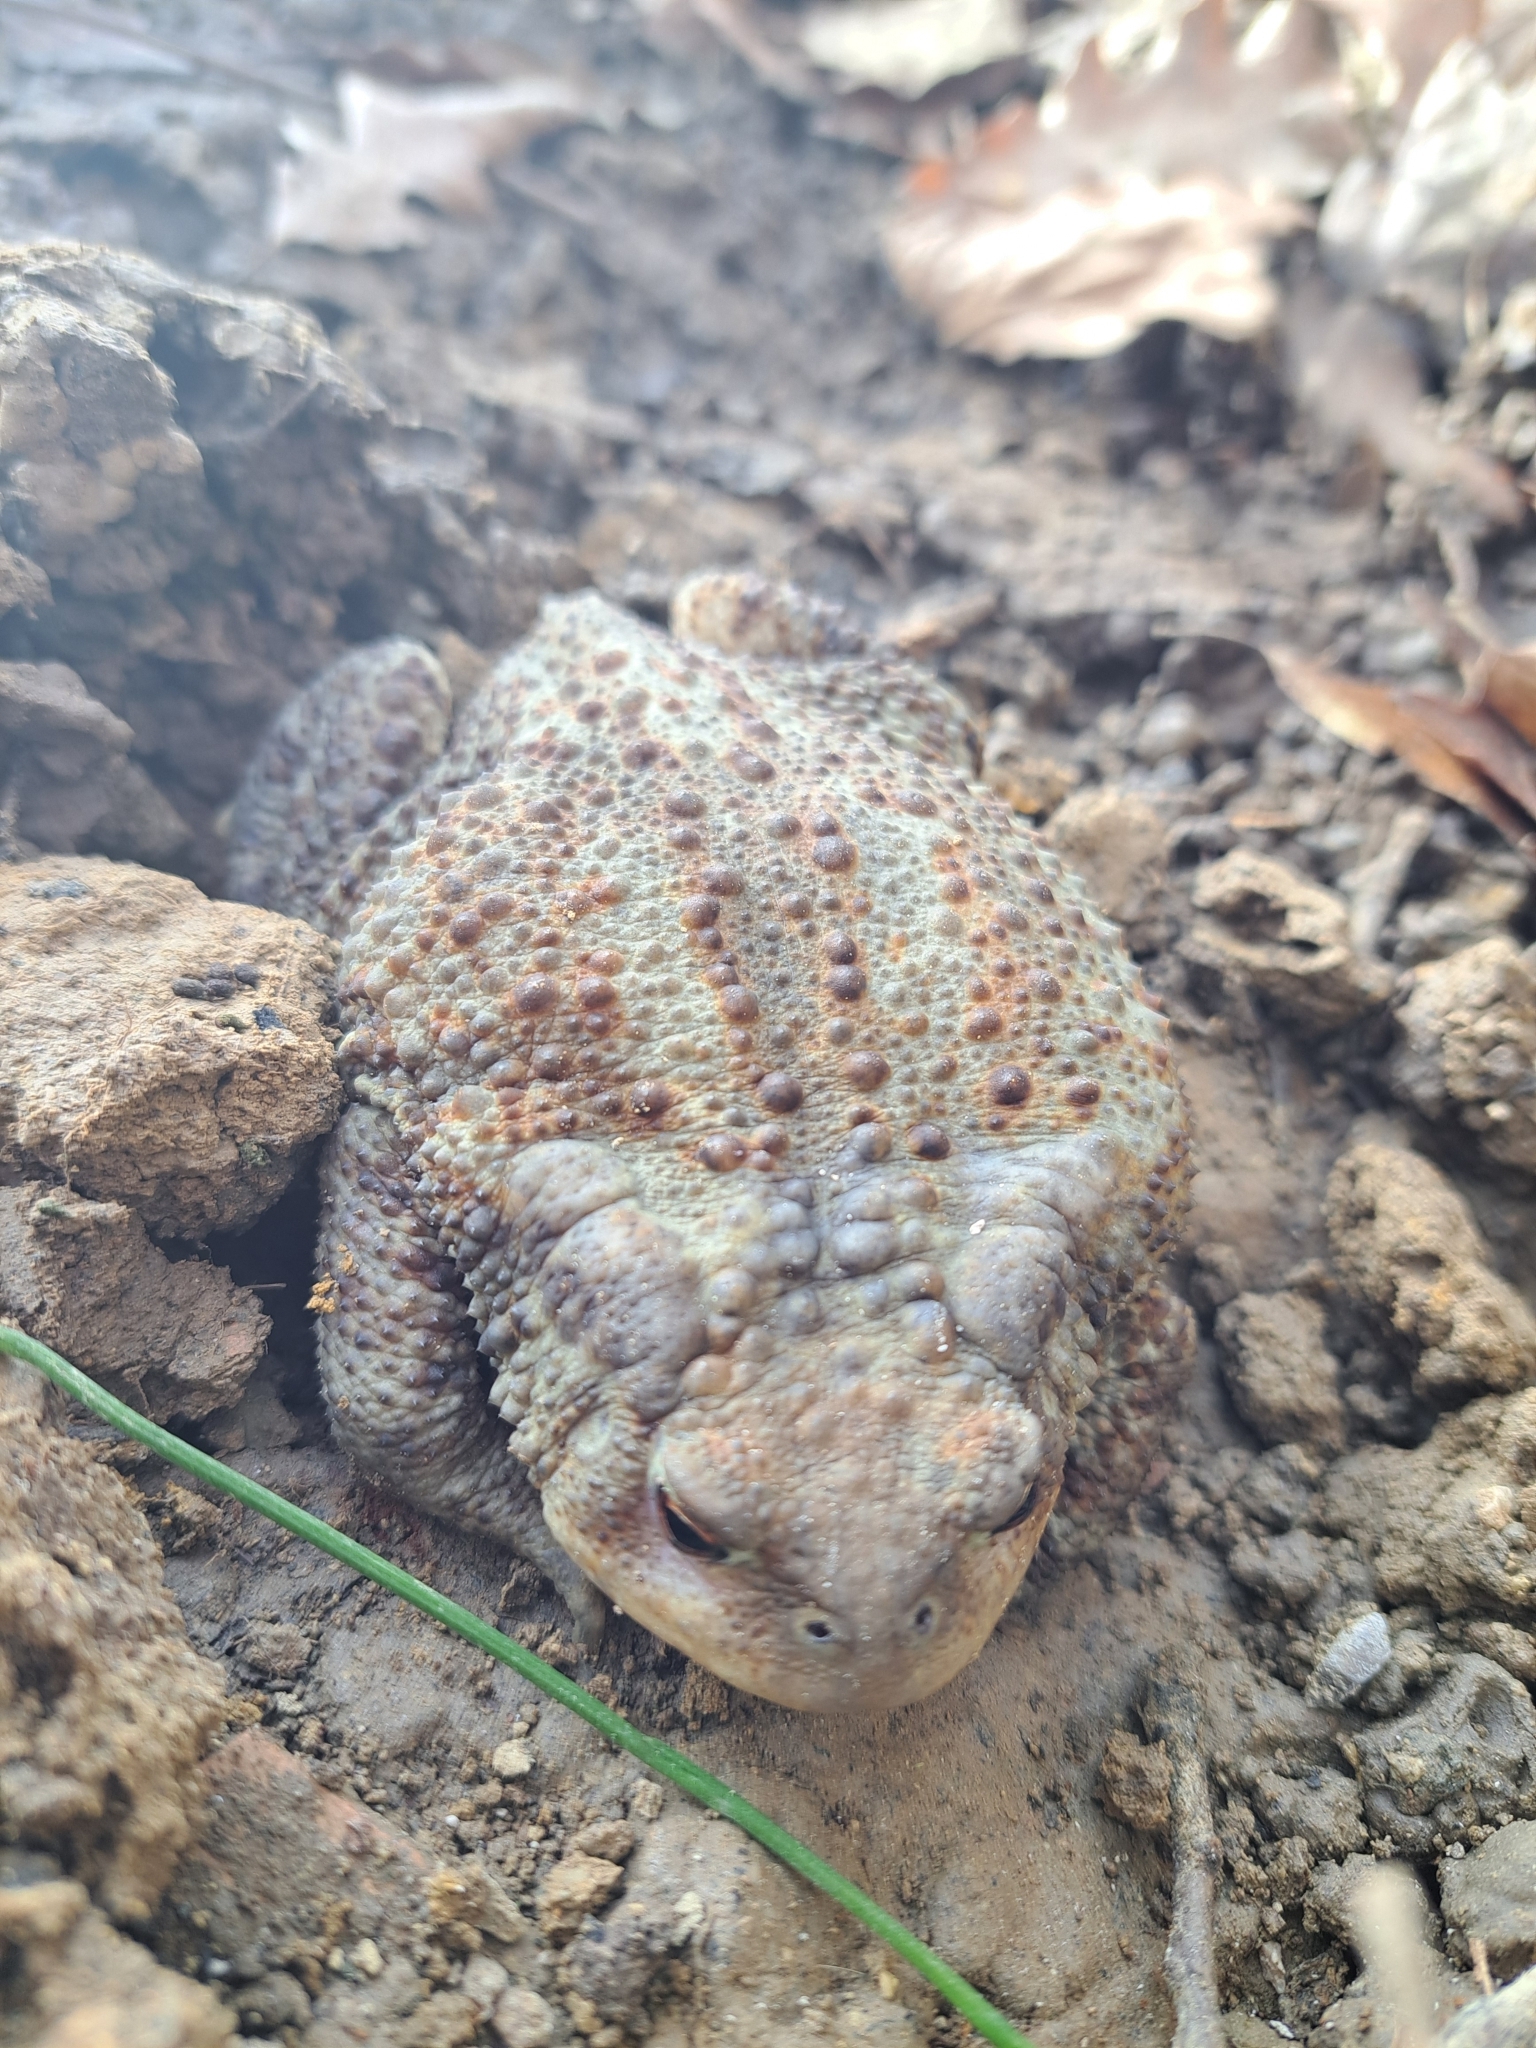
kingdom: Animalia
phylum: Chordata
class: Amphibia
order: Anura
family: Bufonidae
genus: Bufo
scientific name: Bufo bufo
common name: Common toad
